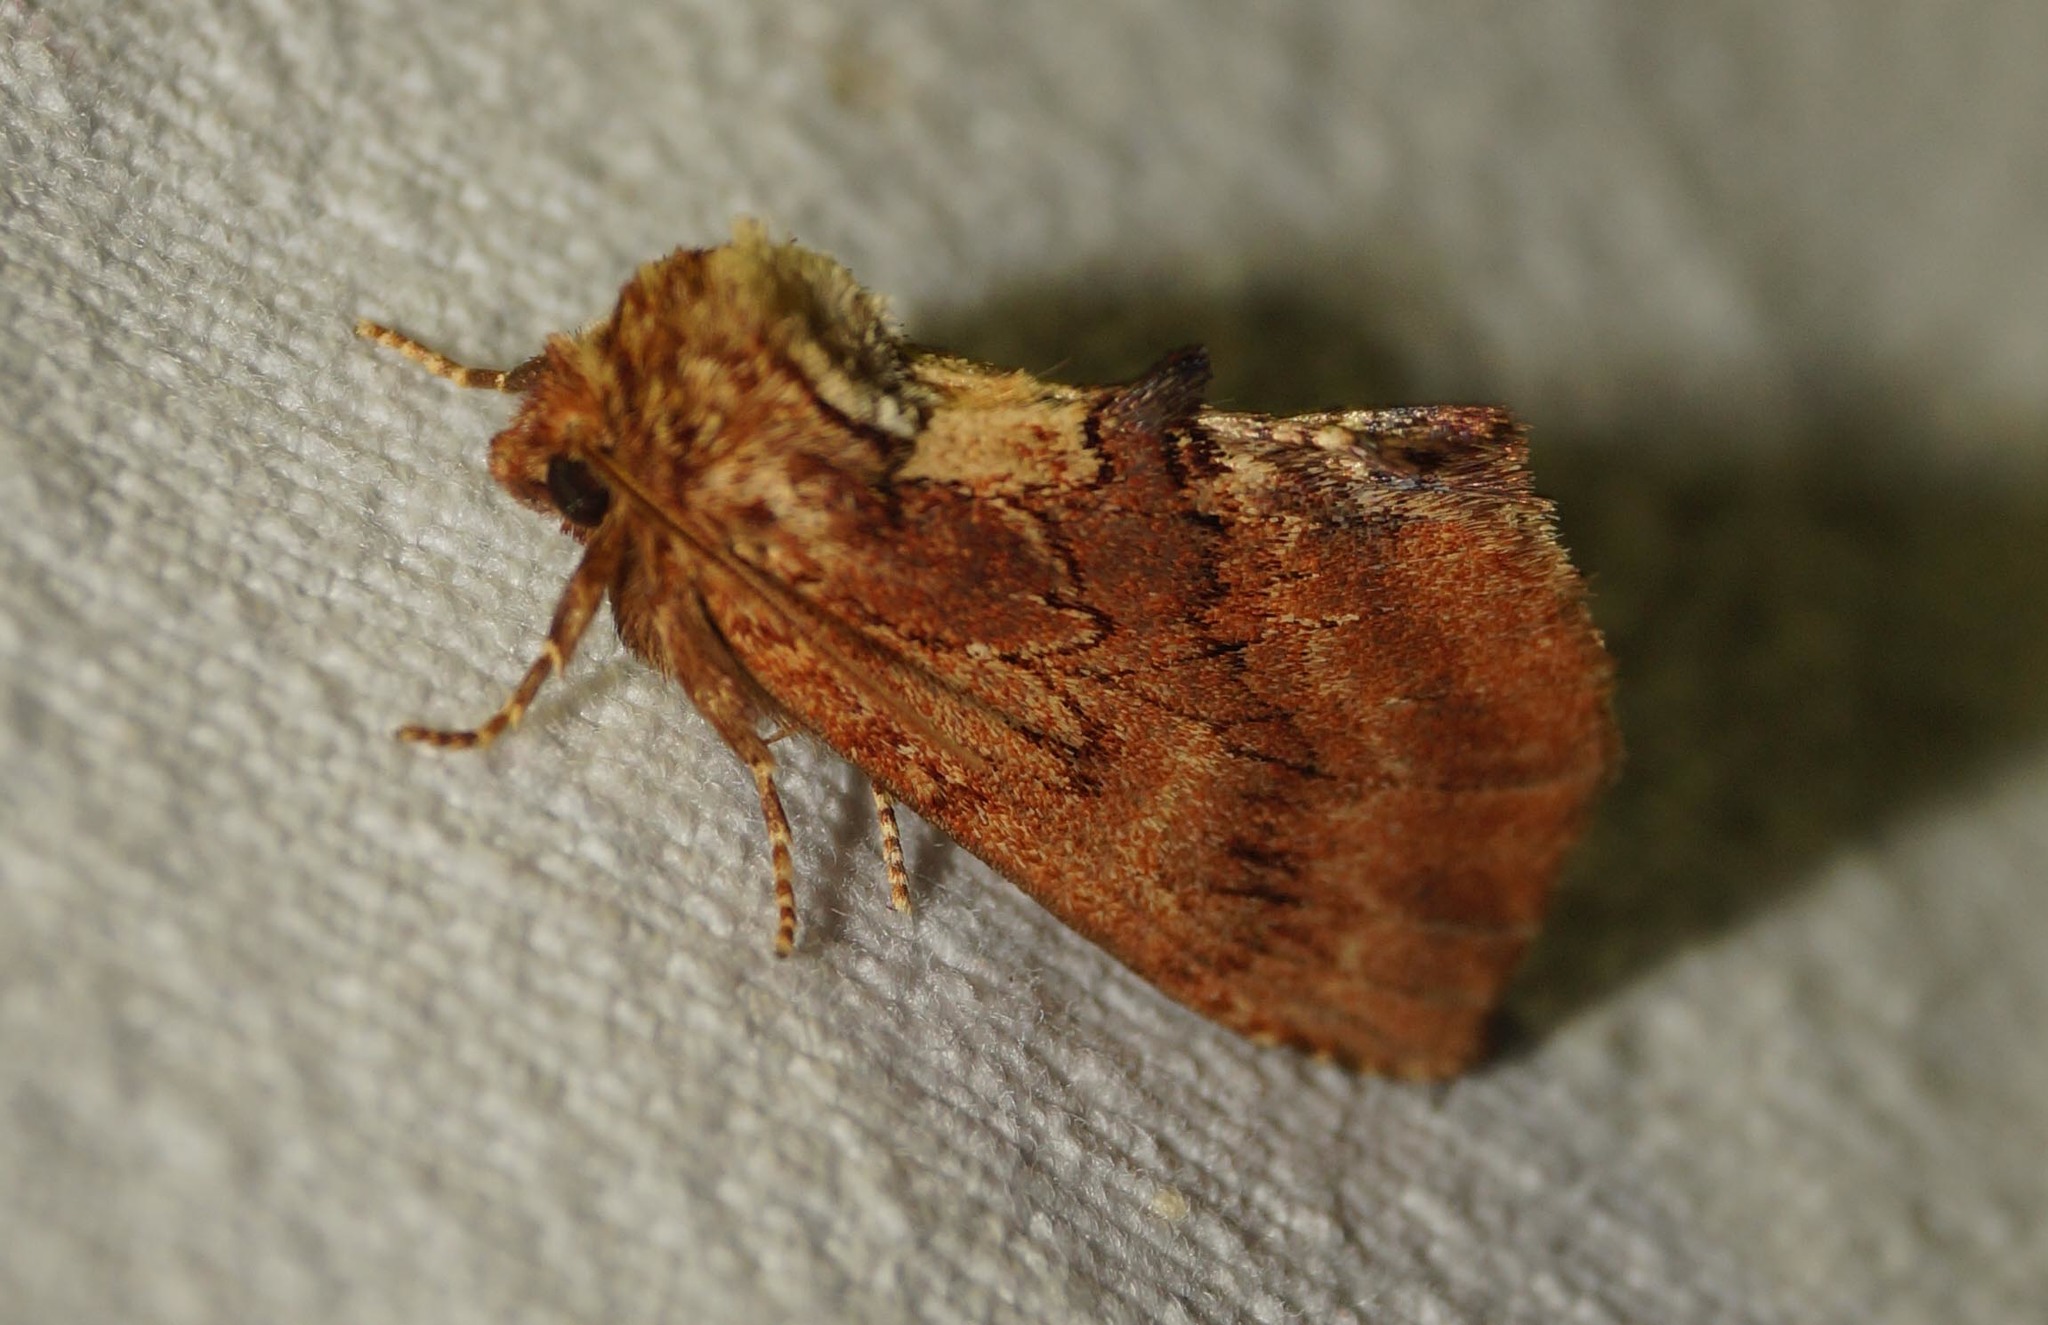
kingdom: Animalia
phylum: Arthropoda
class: Insecta
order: Lepidoptera
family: Notodontidae
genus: Ptilodon
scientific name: Ptilodon capucina
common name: Coxcomb prominent
